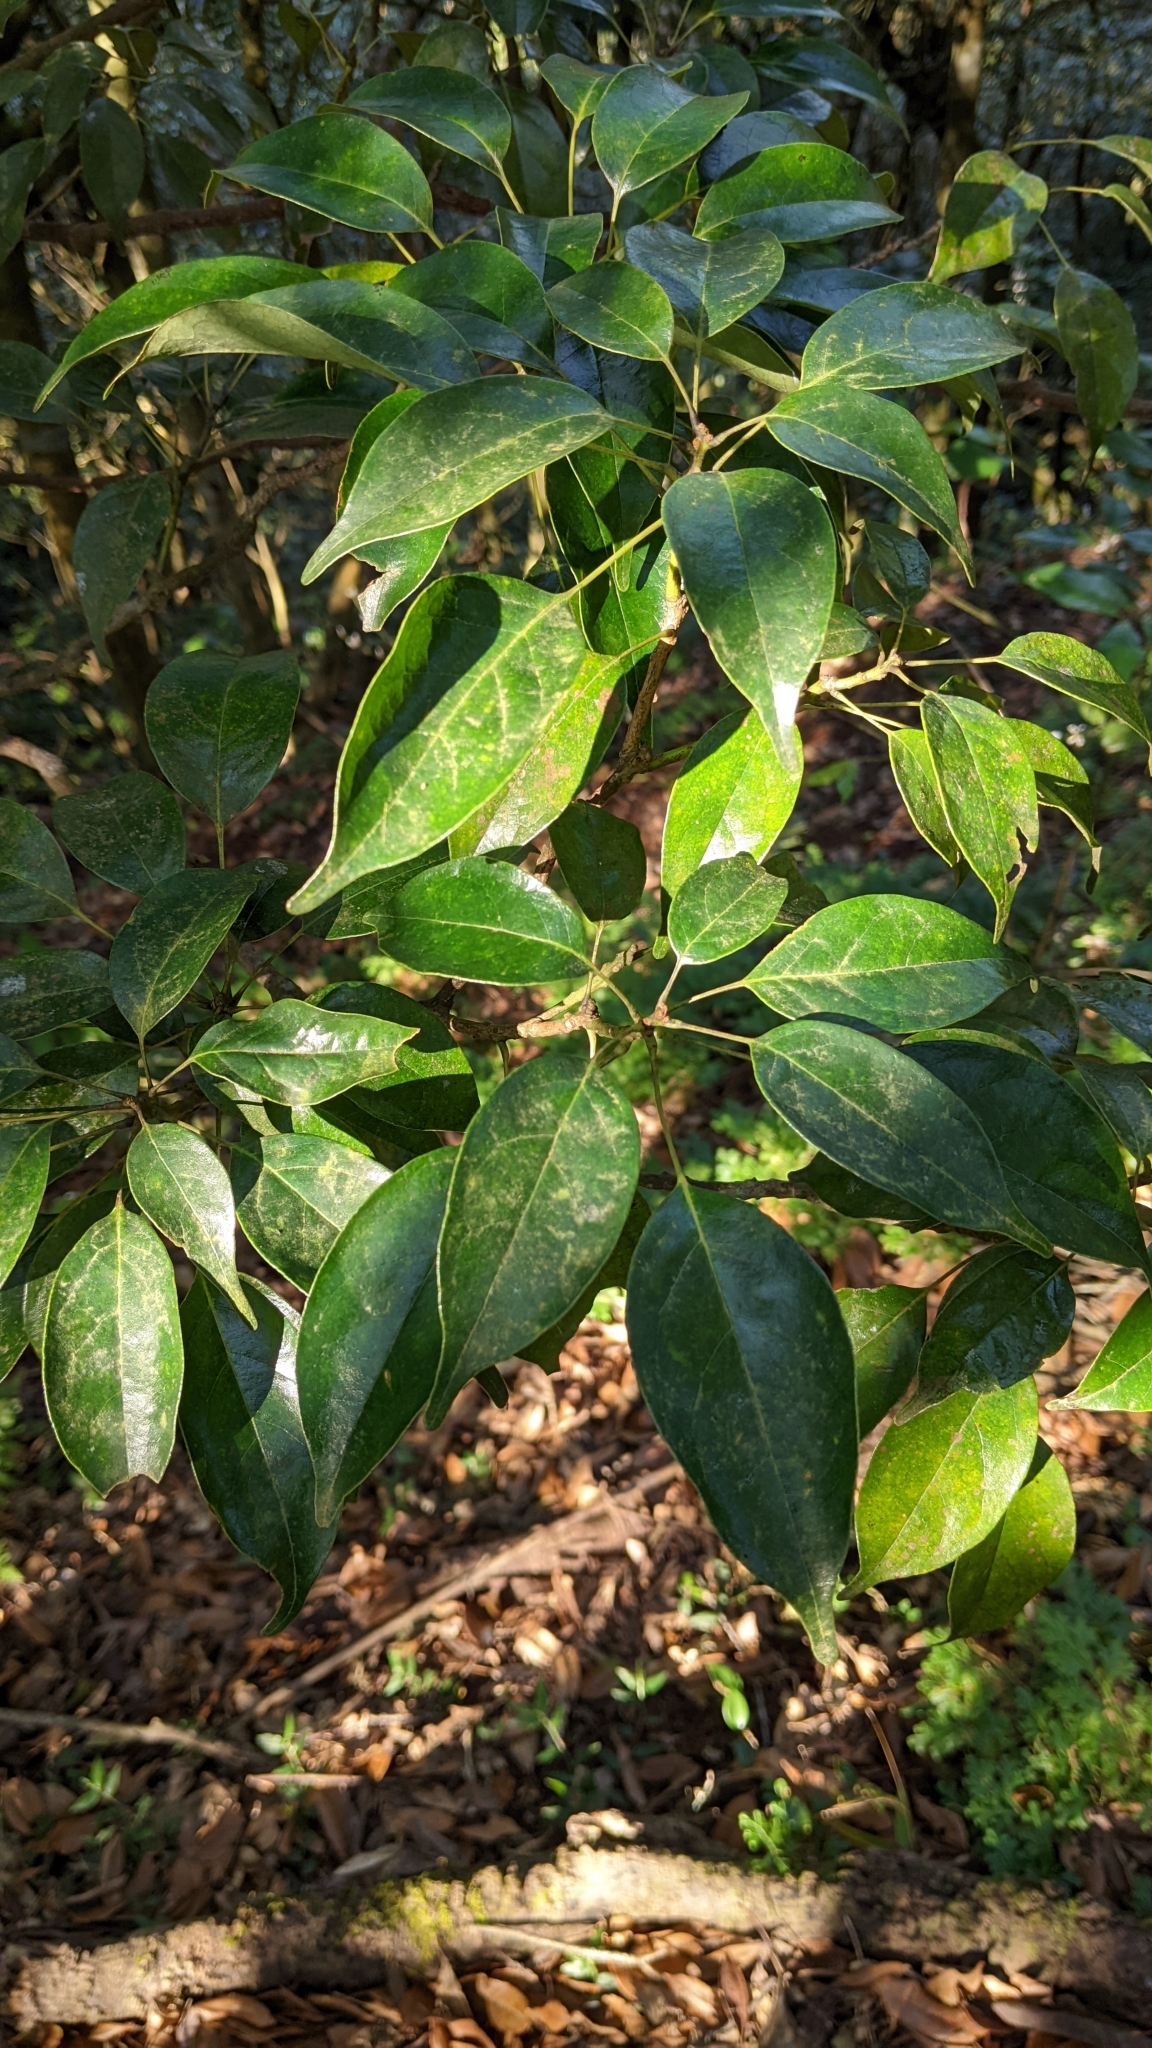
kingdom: Plantae
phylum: Tracheophyta
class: Magnoliopsida
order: Proteales
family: Sabiaceae
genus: Meliosma
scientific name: Meliosma squamulata
